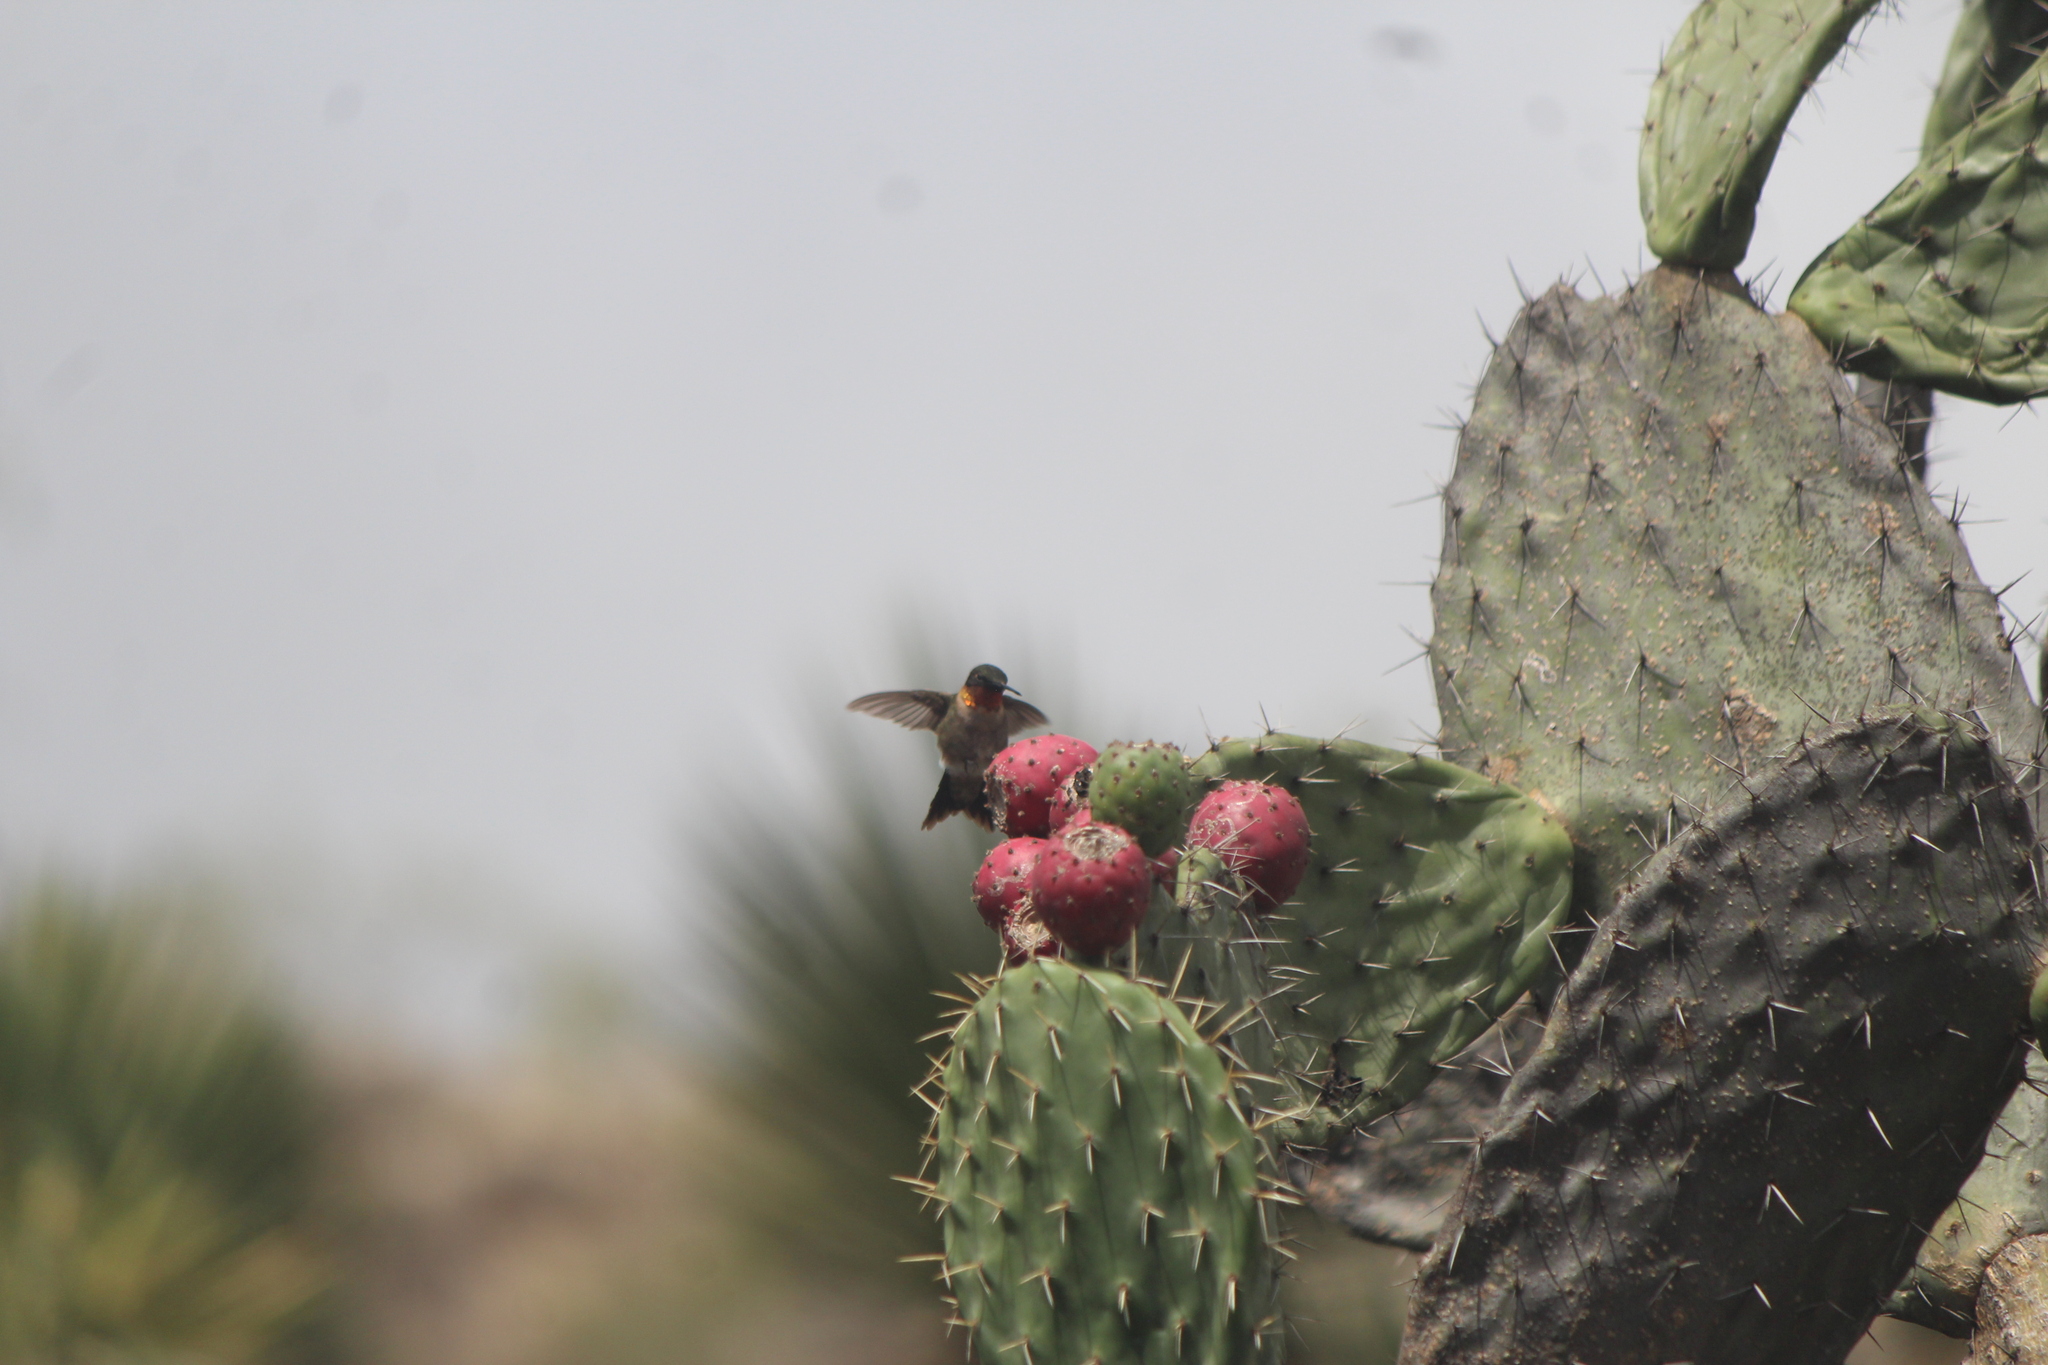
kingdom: Animalia
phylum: Chordata
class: Aves
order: Apodiformes
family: Trochilidae
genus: Archilochus
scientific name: Archilochus colubris
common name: Ruby-throated hummingbird
